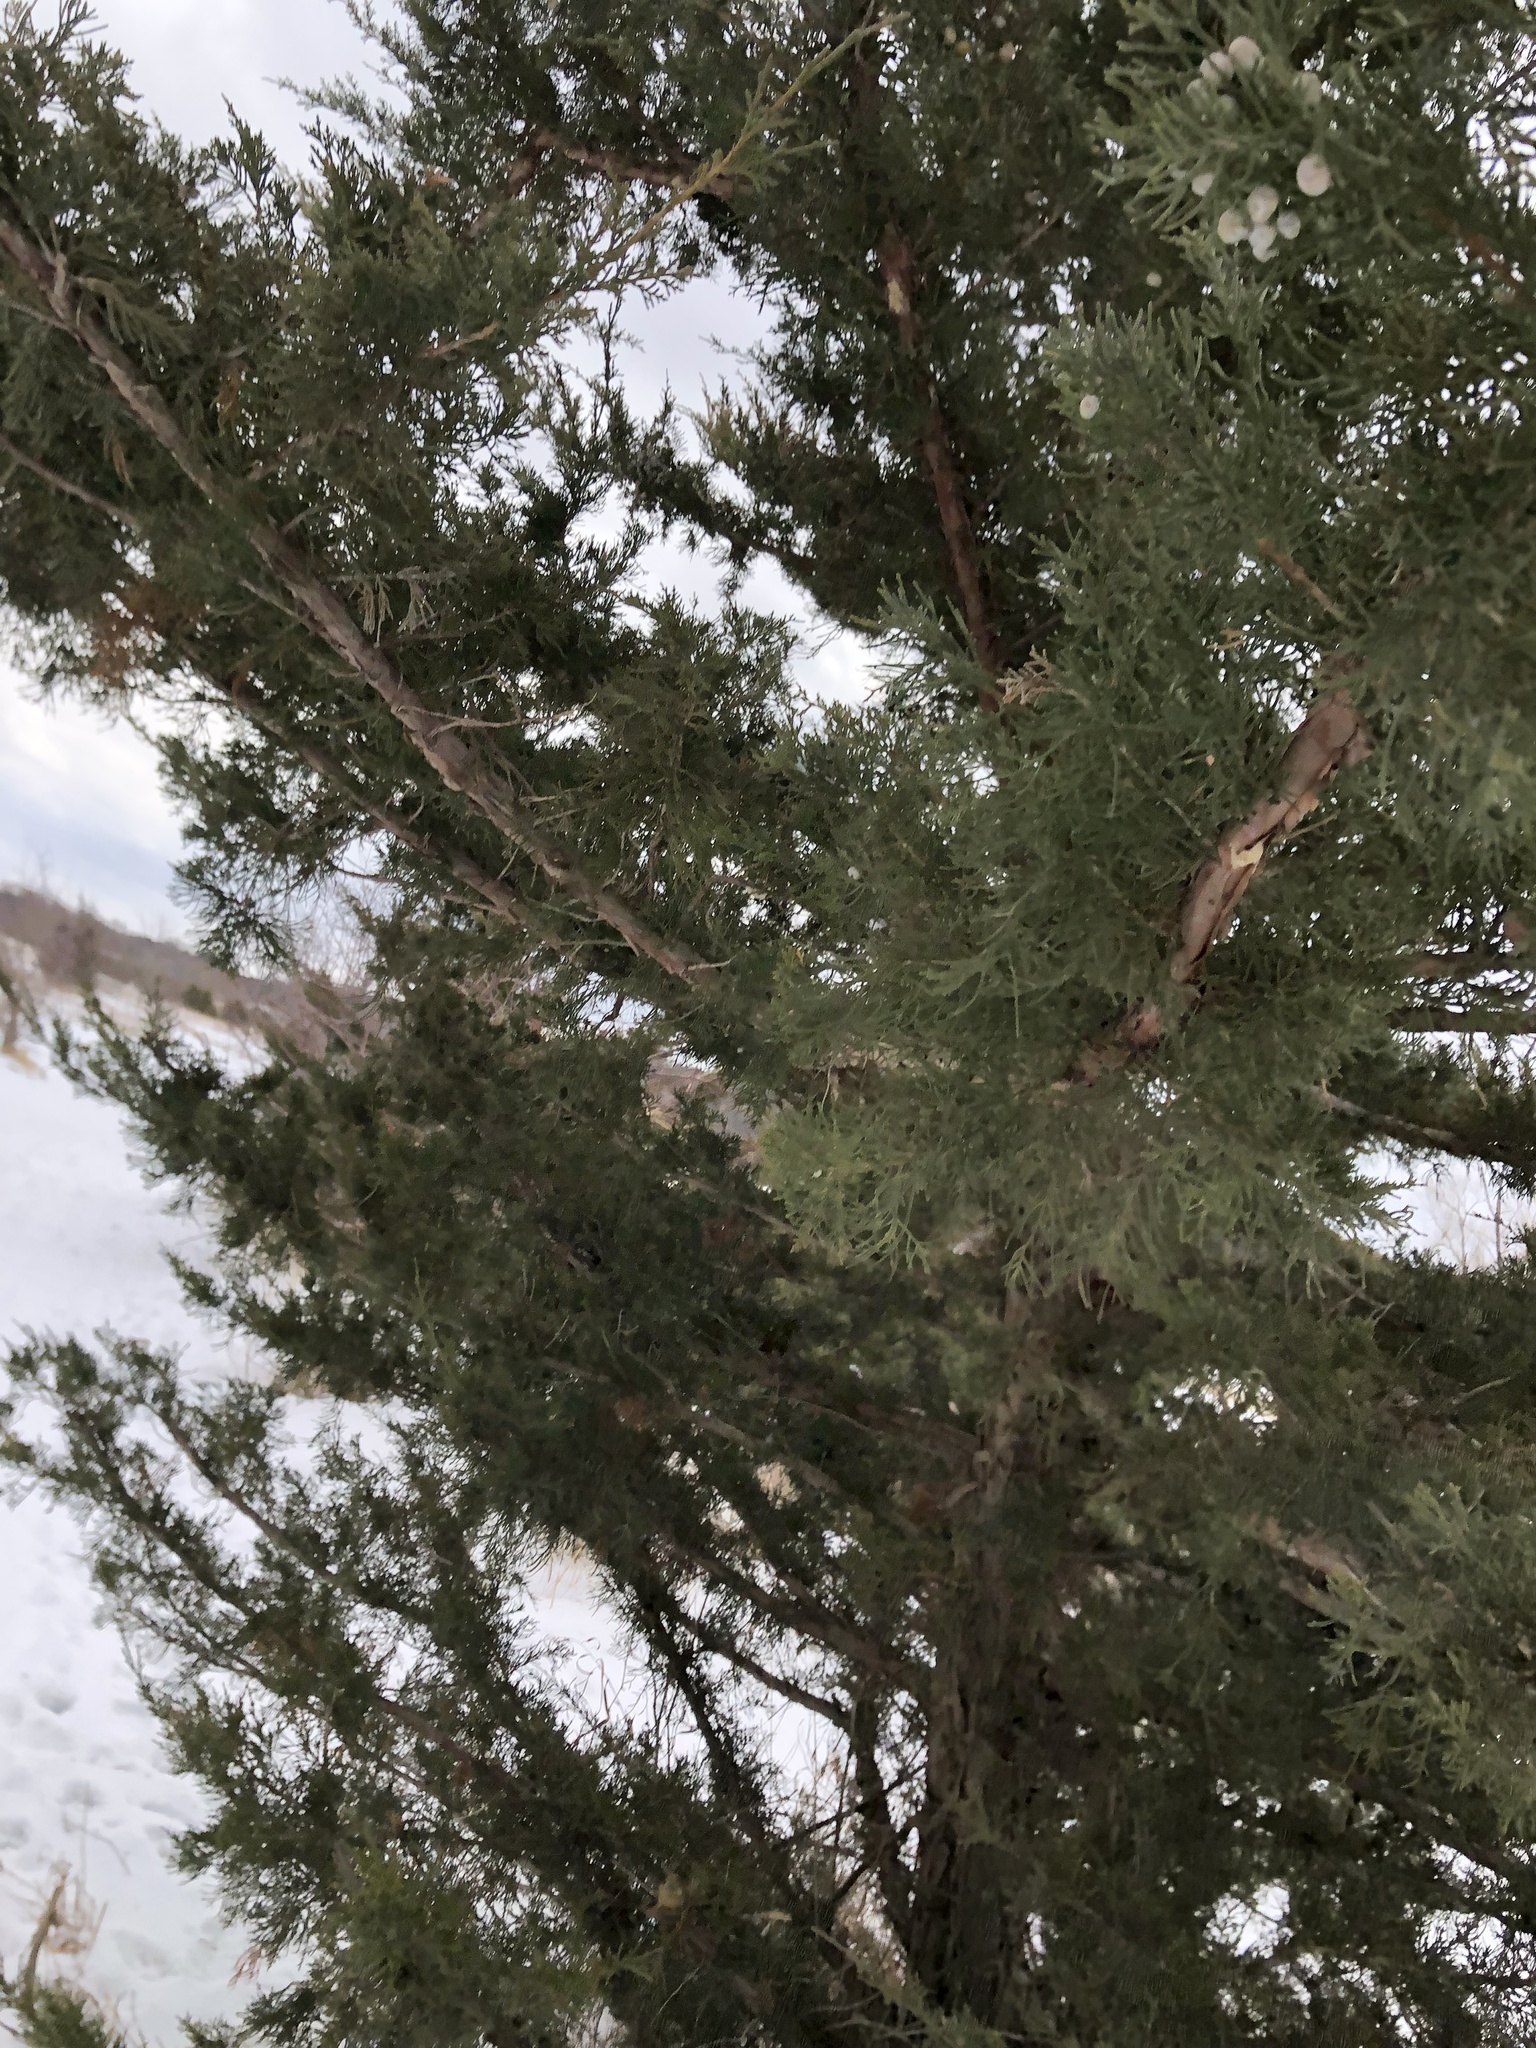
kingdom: Plantae
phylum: Tracheophyta
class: Pinopsida
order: Pinales
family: Cupressaceae
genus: Juniperus
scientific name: Juniperus virginiana
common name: Red juniper
